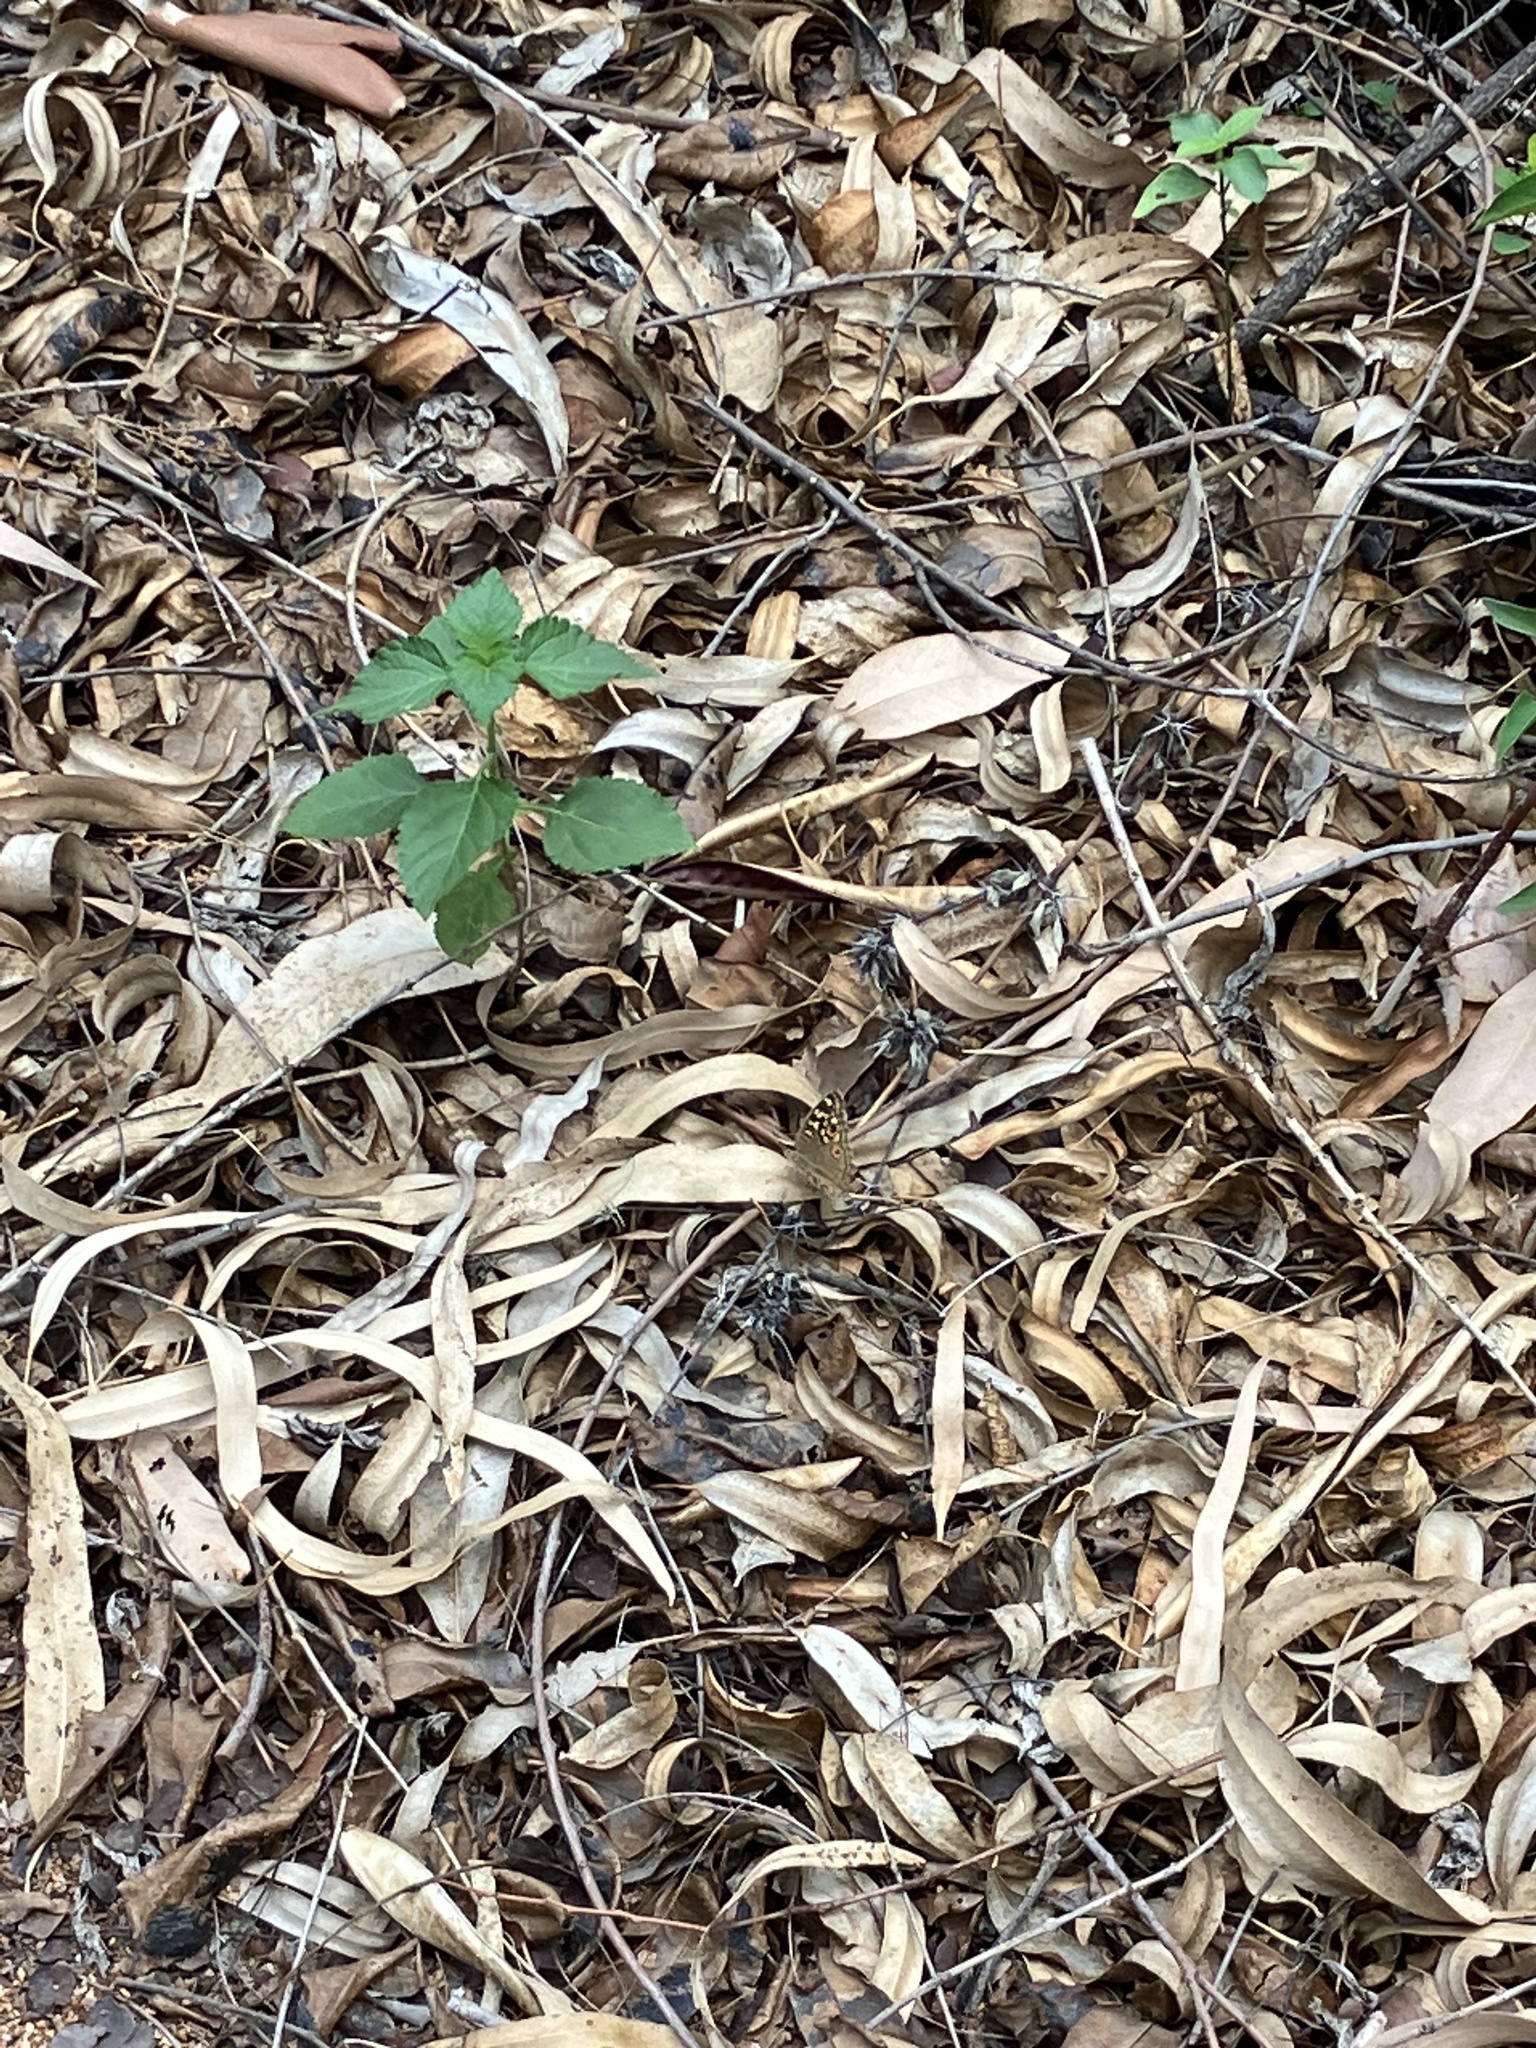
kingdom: Animalia
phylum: Arthropoda
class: Insecta
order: Lepidoptera
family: Nymphalidae
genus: Junonia
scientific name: Junonia lemonias
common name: Lemon pansy
